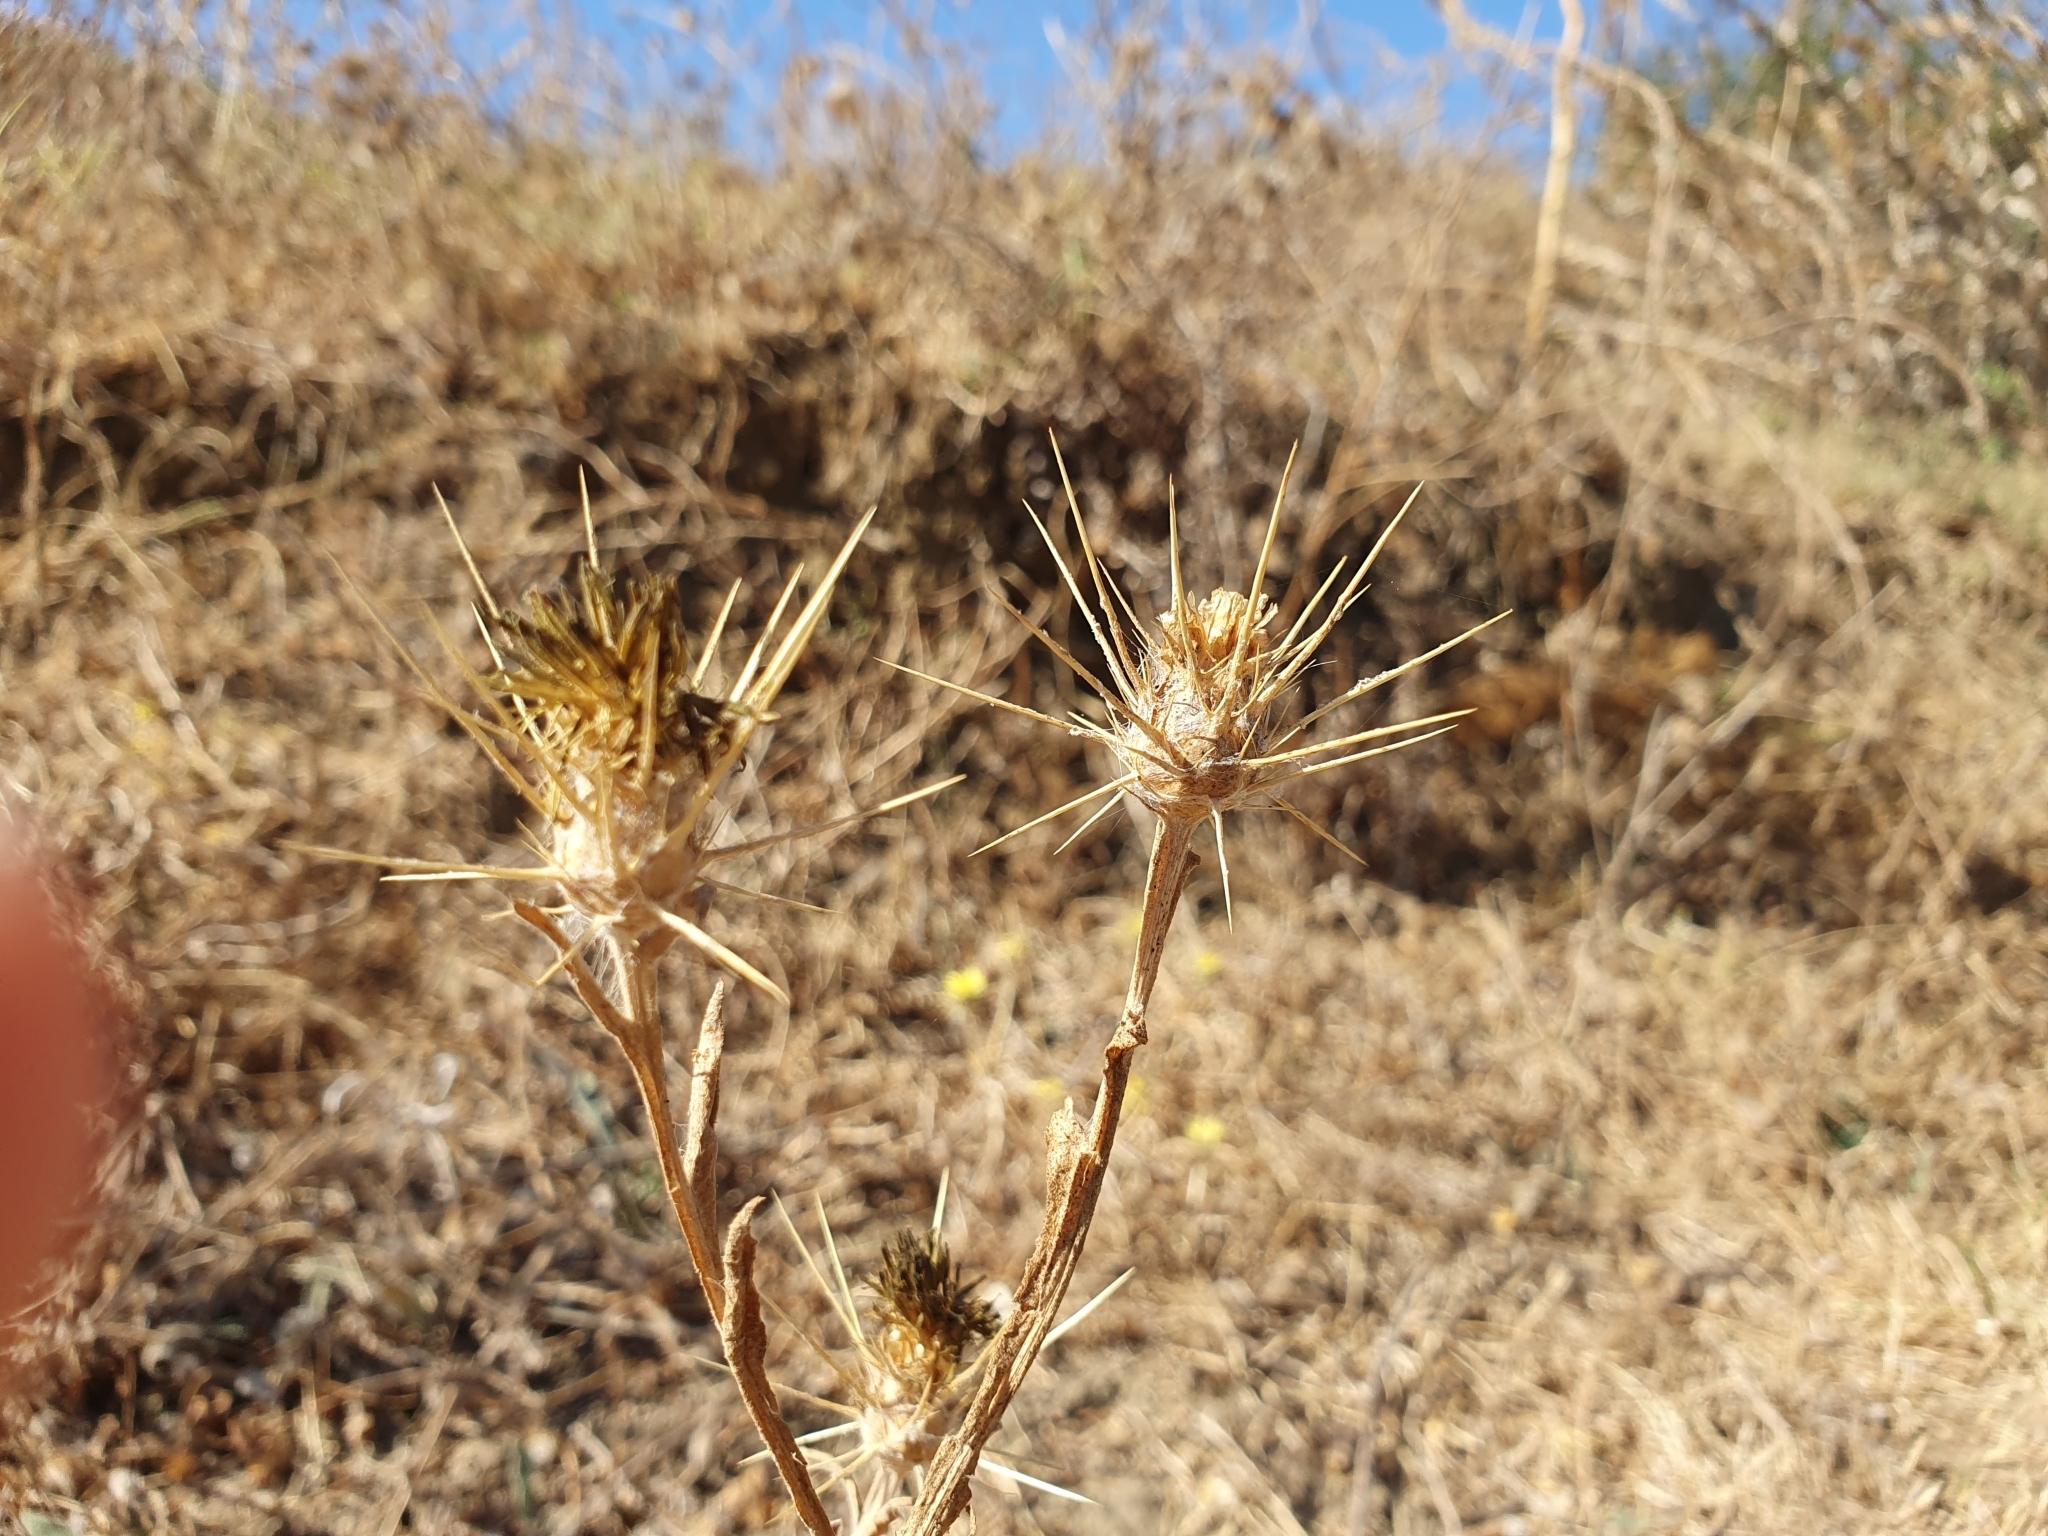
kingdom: Plantae
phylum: Tracheophyta
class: Magnoliopsida
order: Asterales
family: Asteraceae
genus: Centaurea
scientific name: Centaurea solstitialis
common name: Yellow star-thistle
